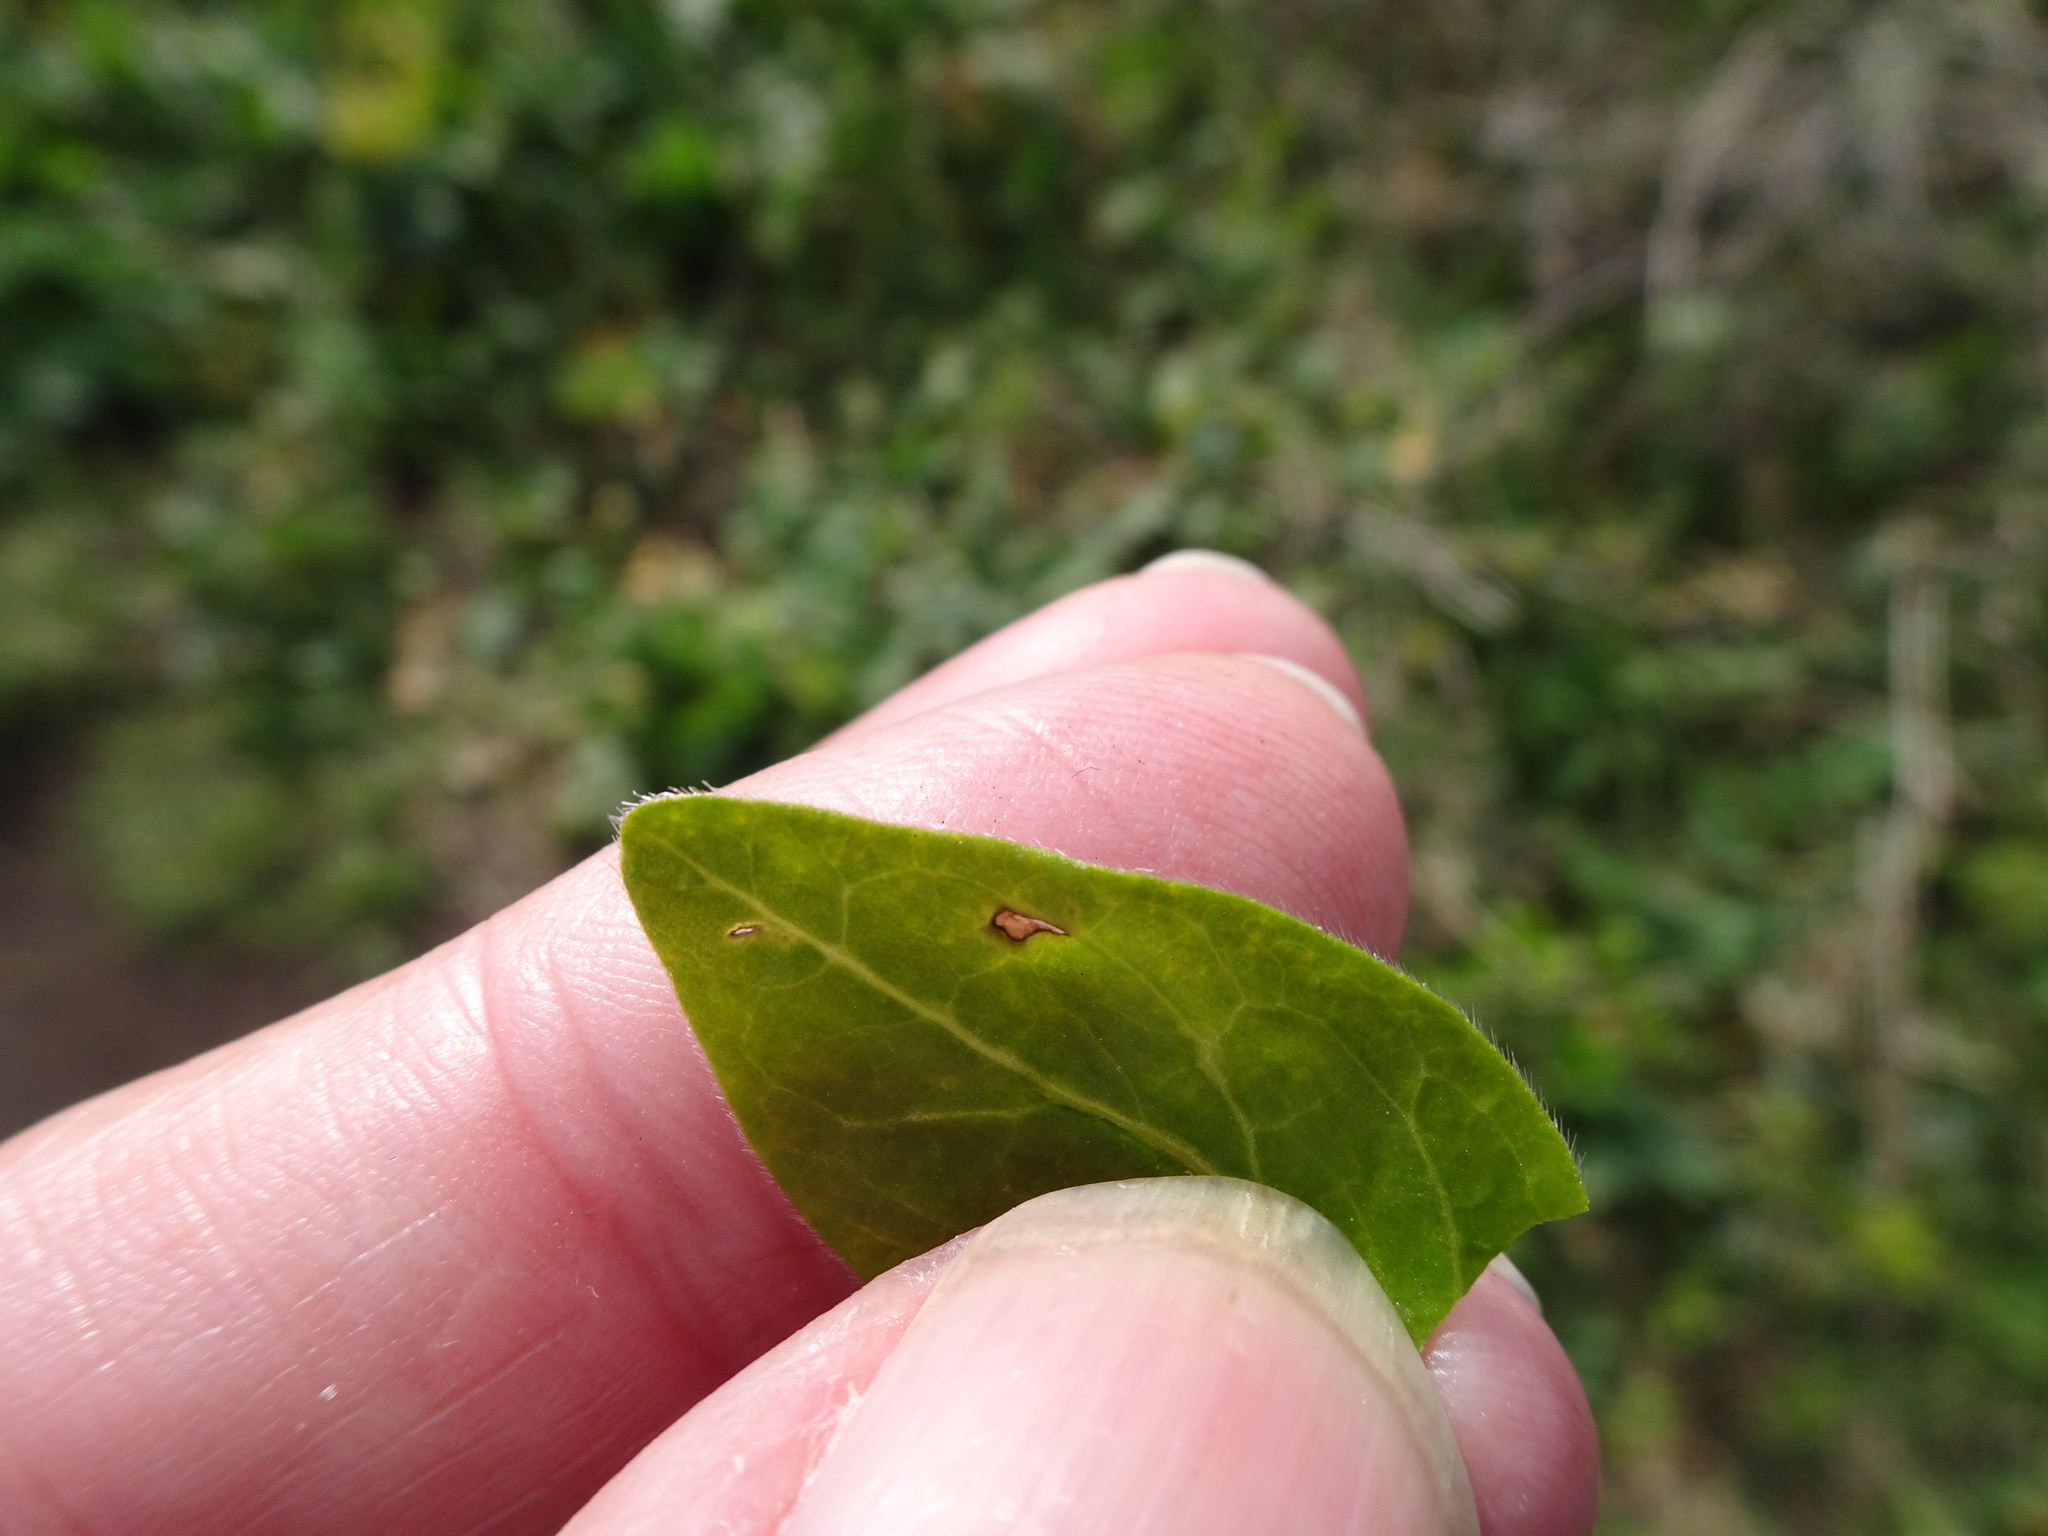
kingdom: Plantae
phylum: Tracheophyta
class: Magnoliopsida
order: Gentianales
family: Apocynaceae
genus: Vinca
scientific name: Vinca major
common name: Greater periwinkle
